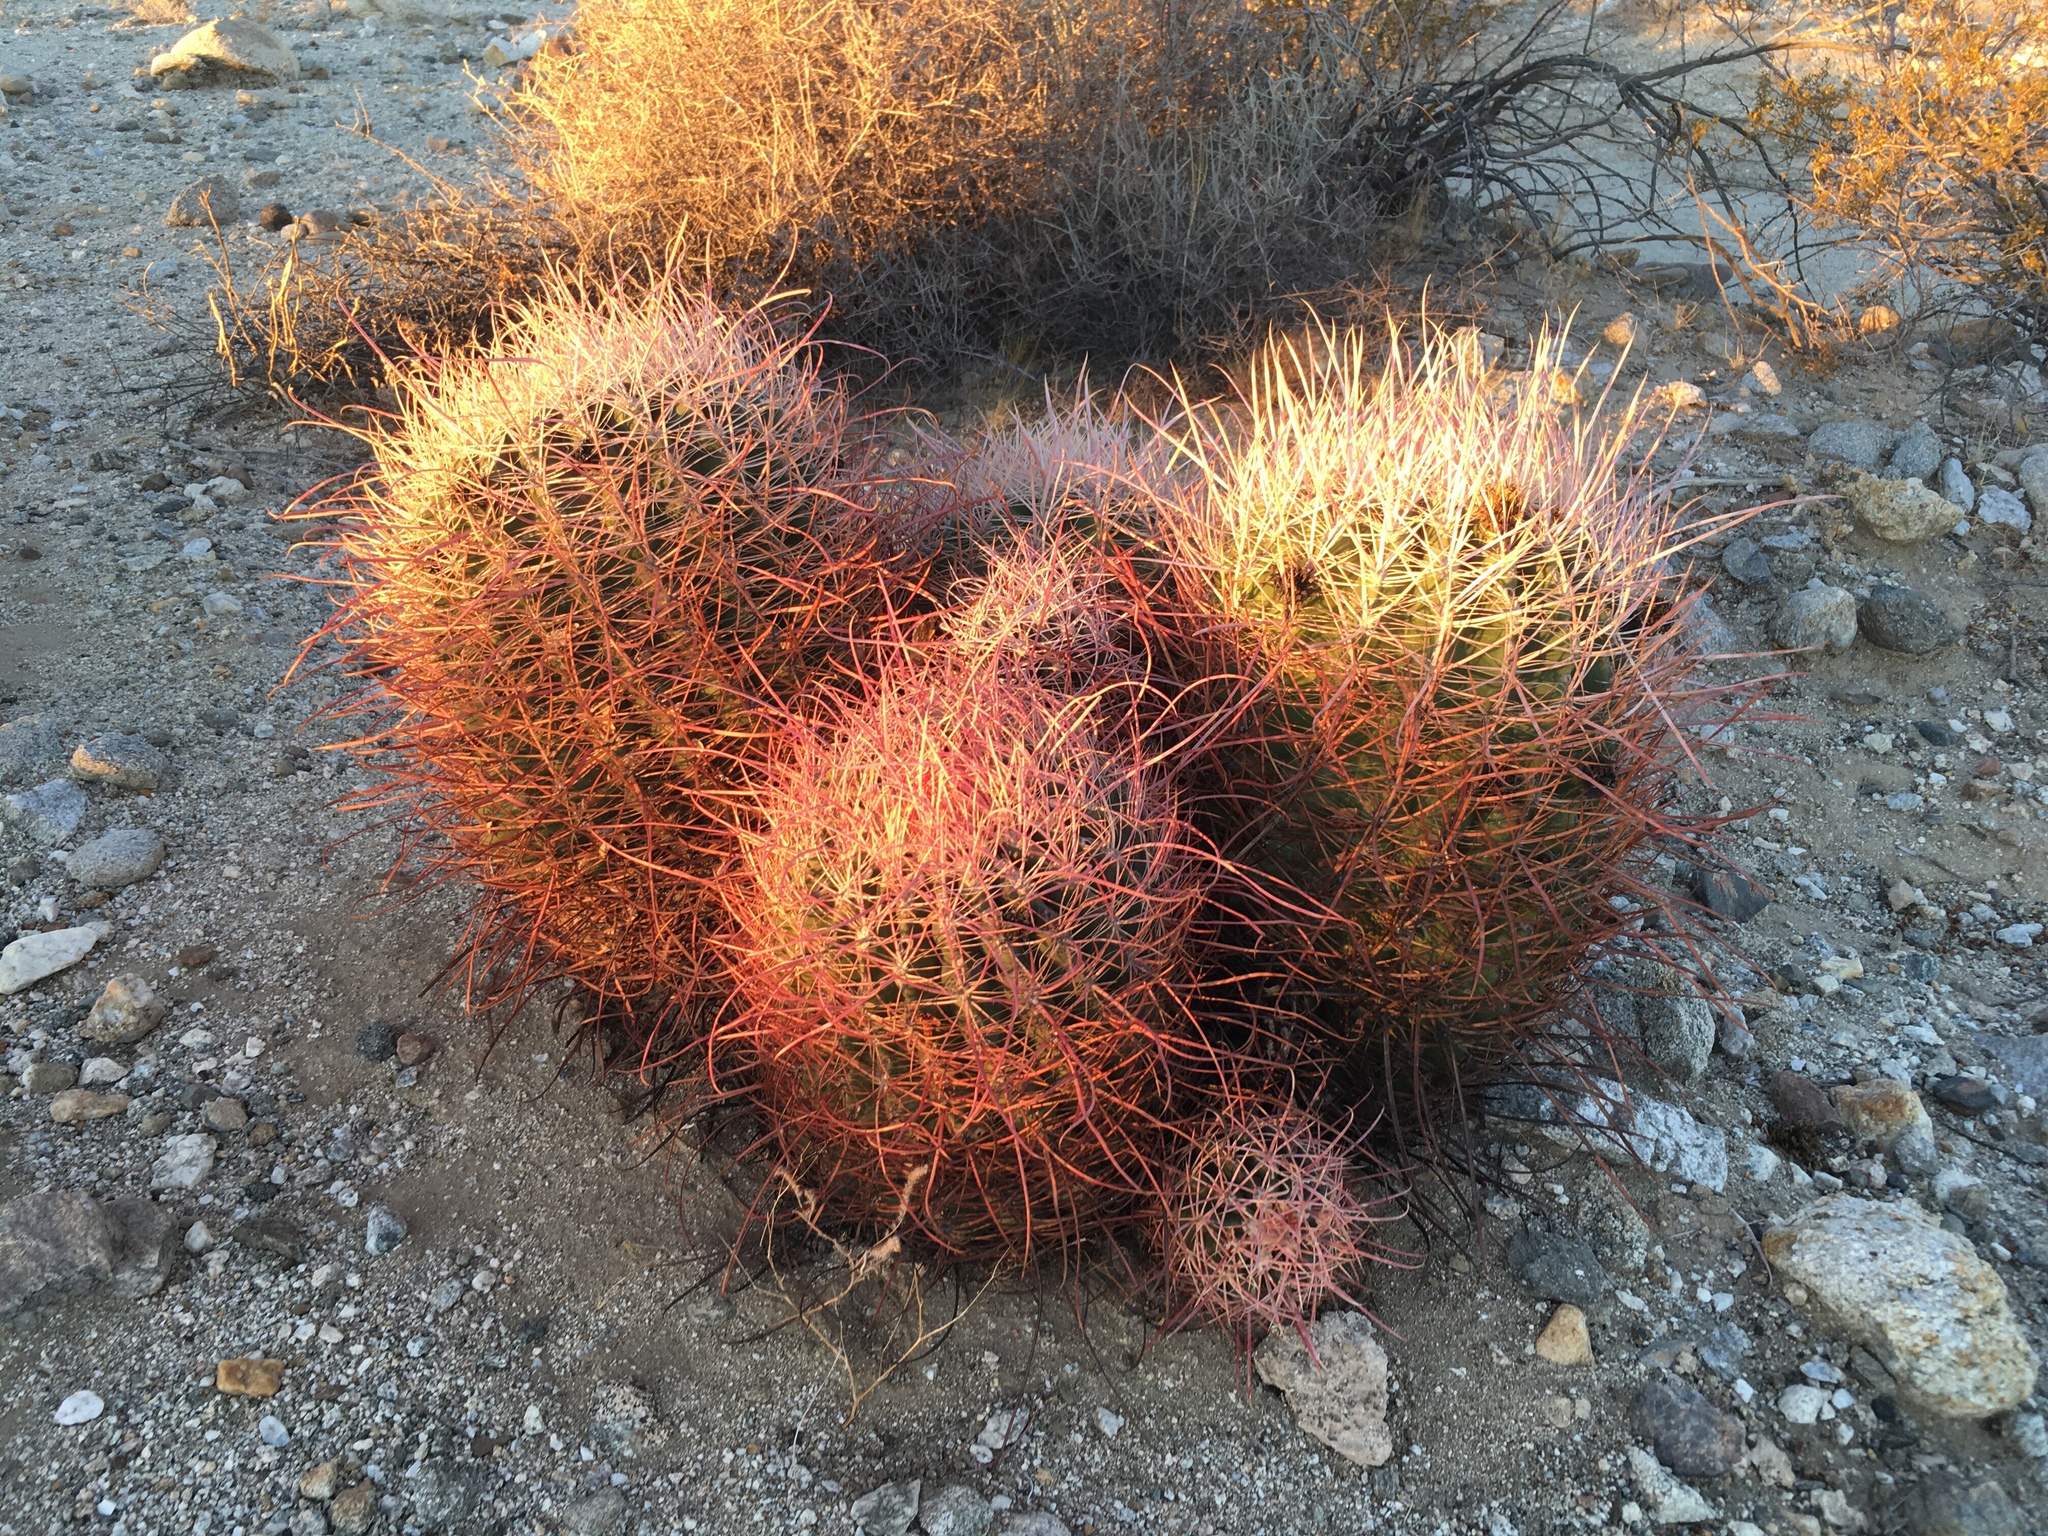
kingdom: Plantae
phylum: Tracheophyta
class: Magnoliopsida
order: Caryophyllales
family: Cactaceae
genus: Ferocactus
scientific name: Ferocactus cylindraceus
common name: California barrel cactus
